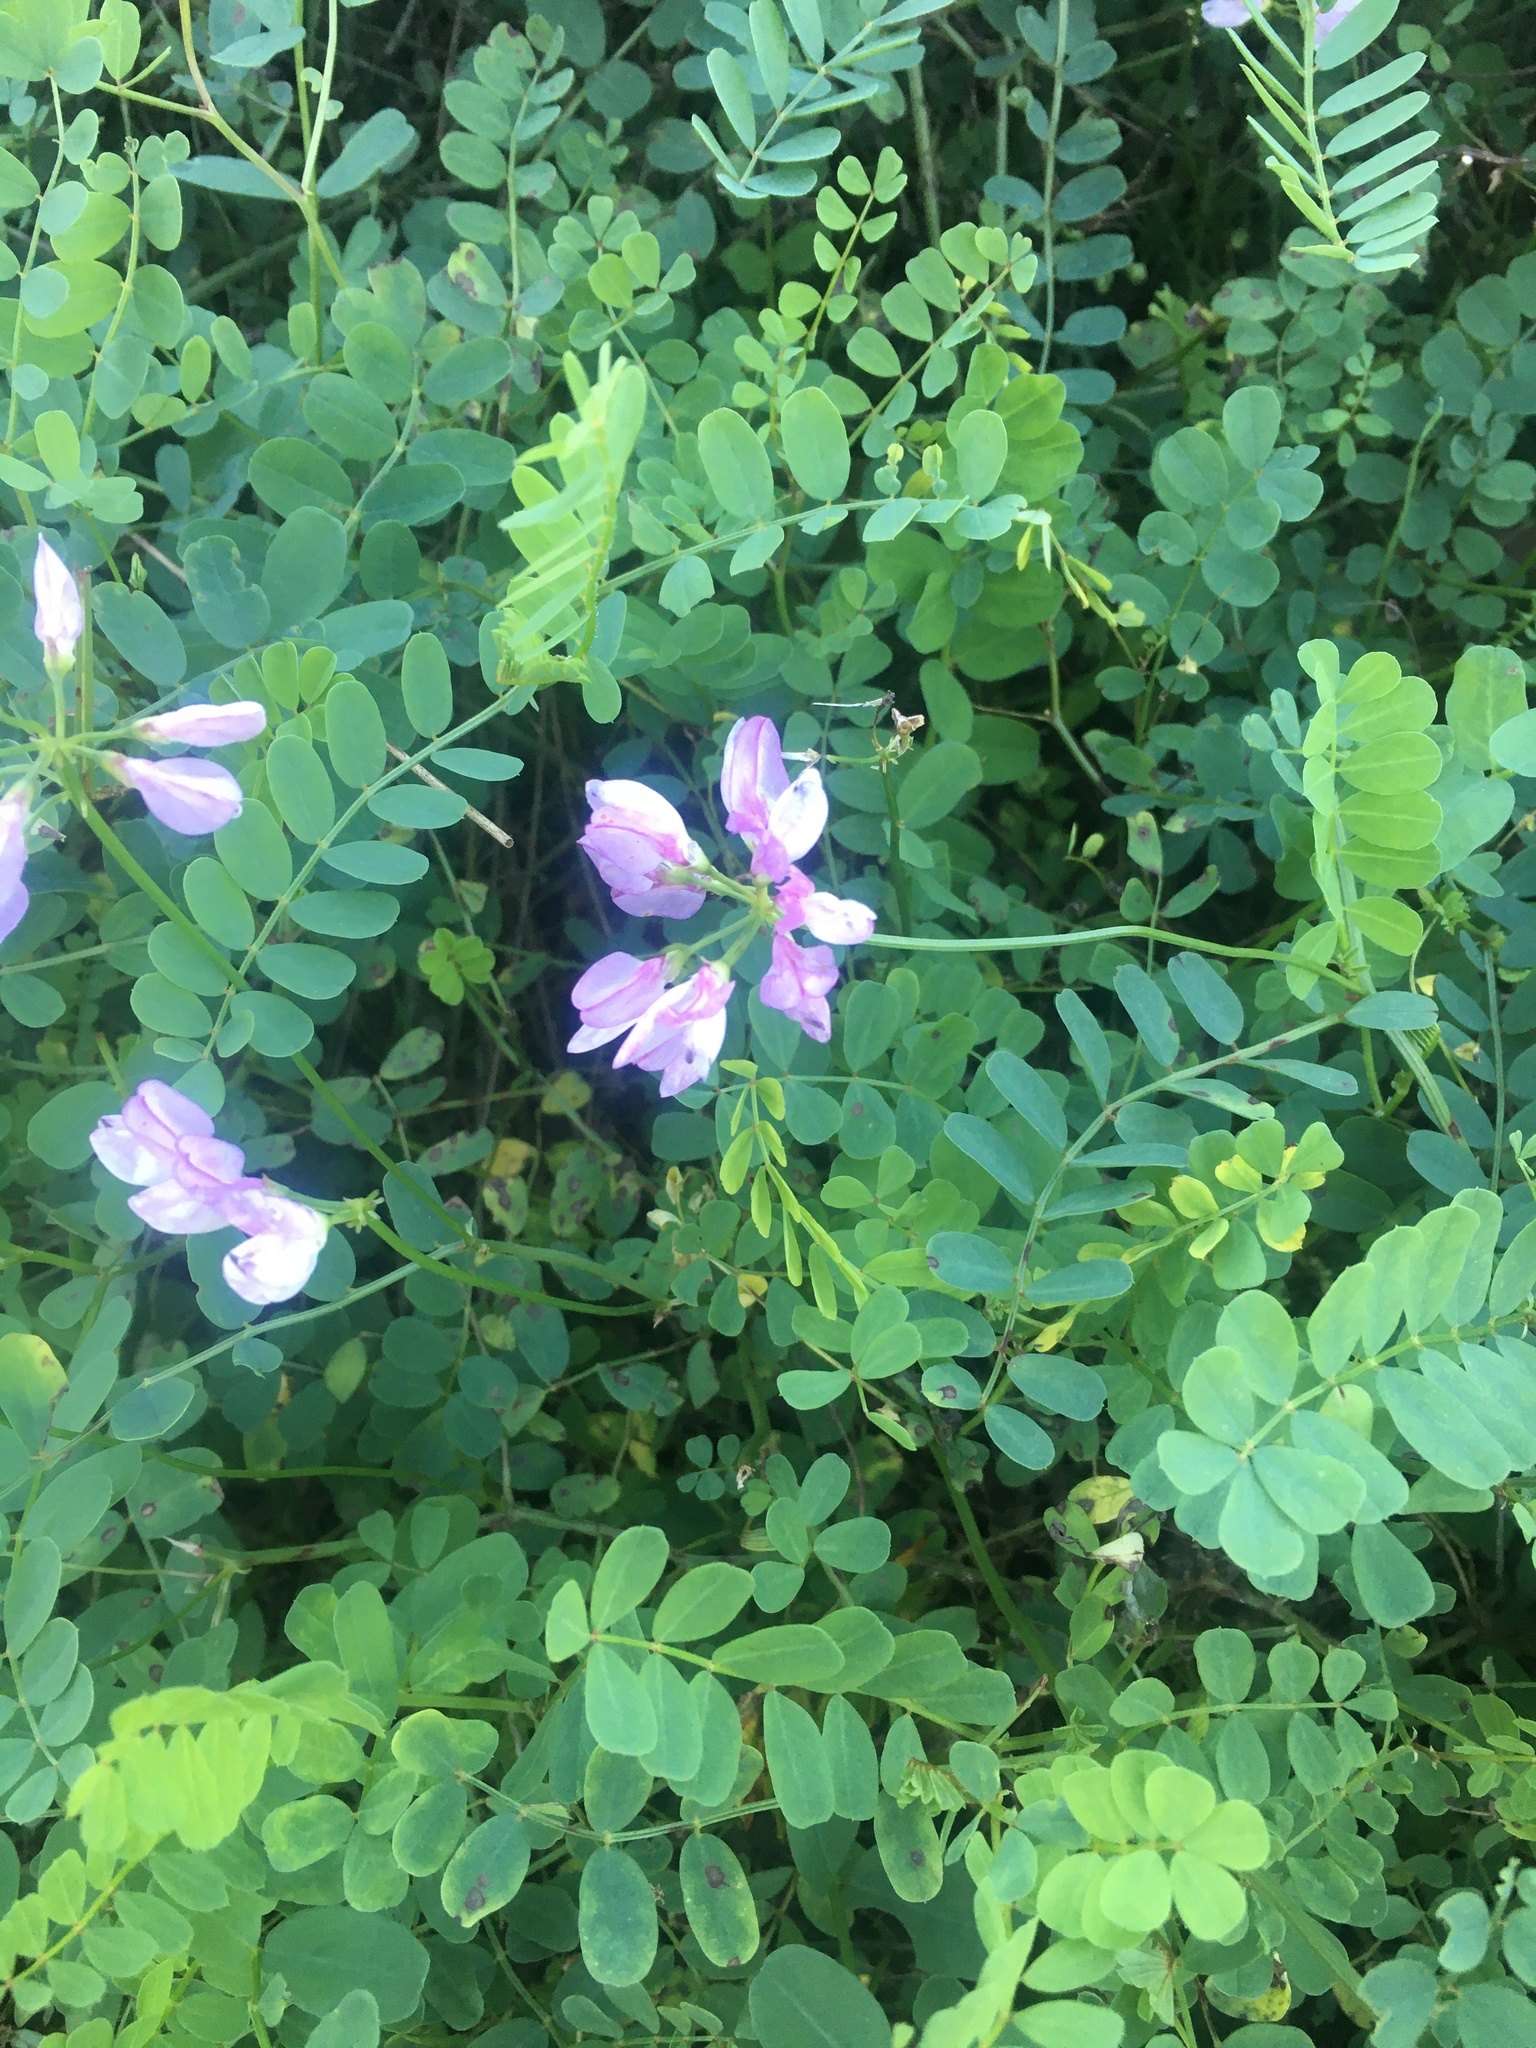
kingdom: Plantae
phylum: Tracheophyta
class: Magnoliopsida
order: Fabales
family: Fabaceae
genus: Coronilla
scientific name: Coronilla varia
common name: Crownvetch
